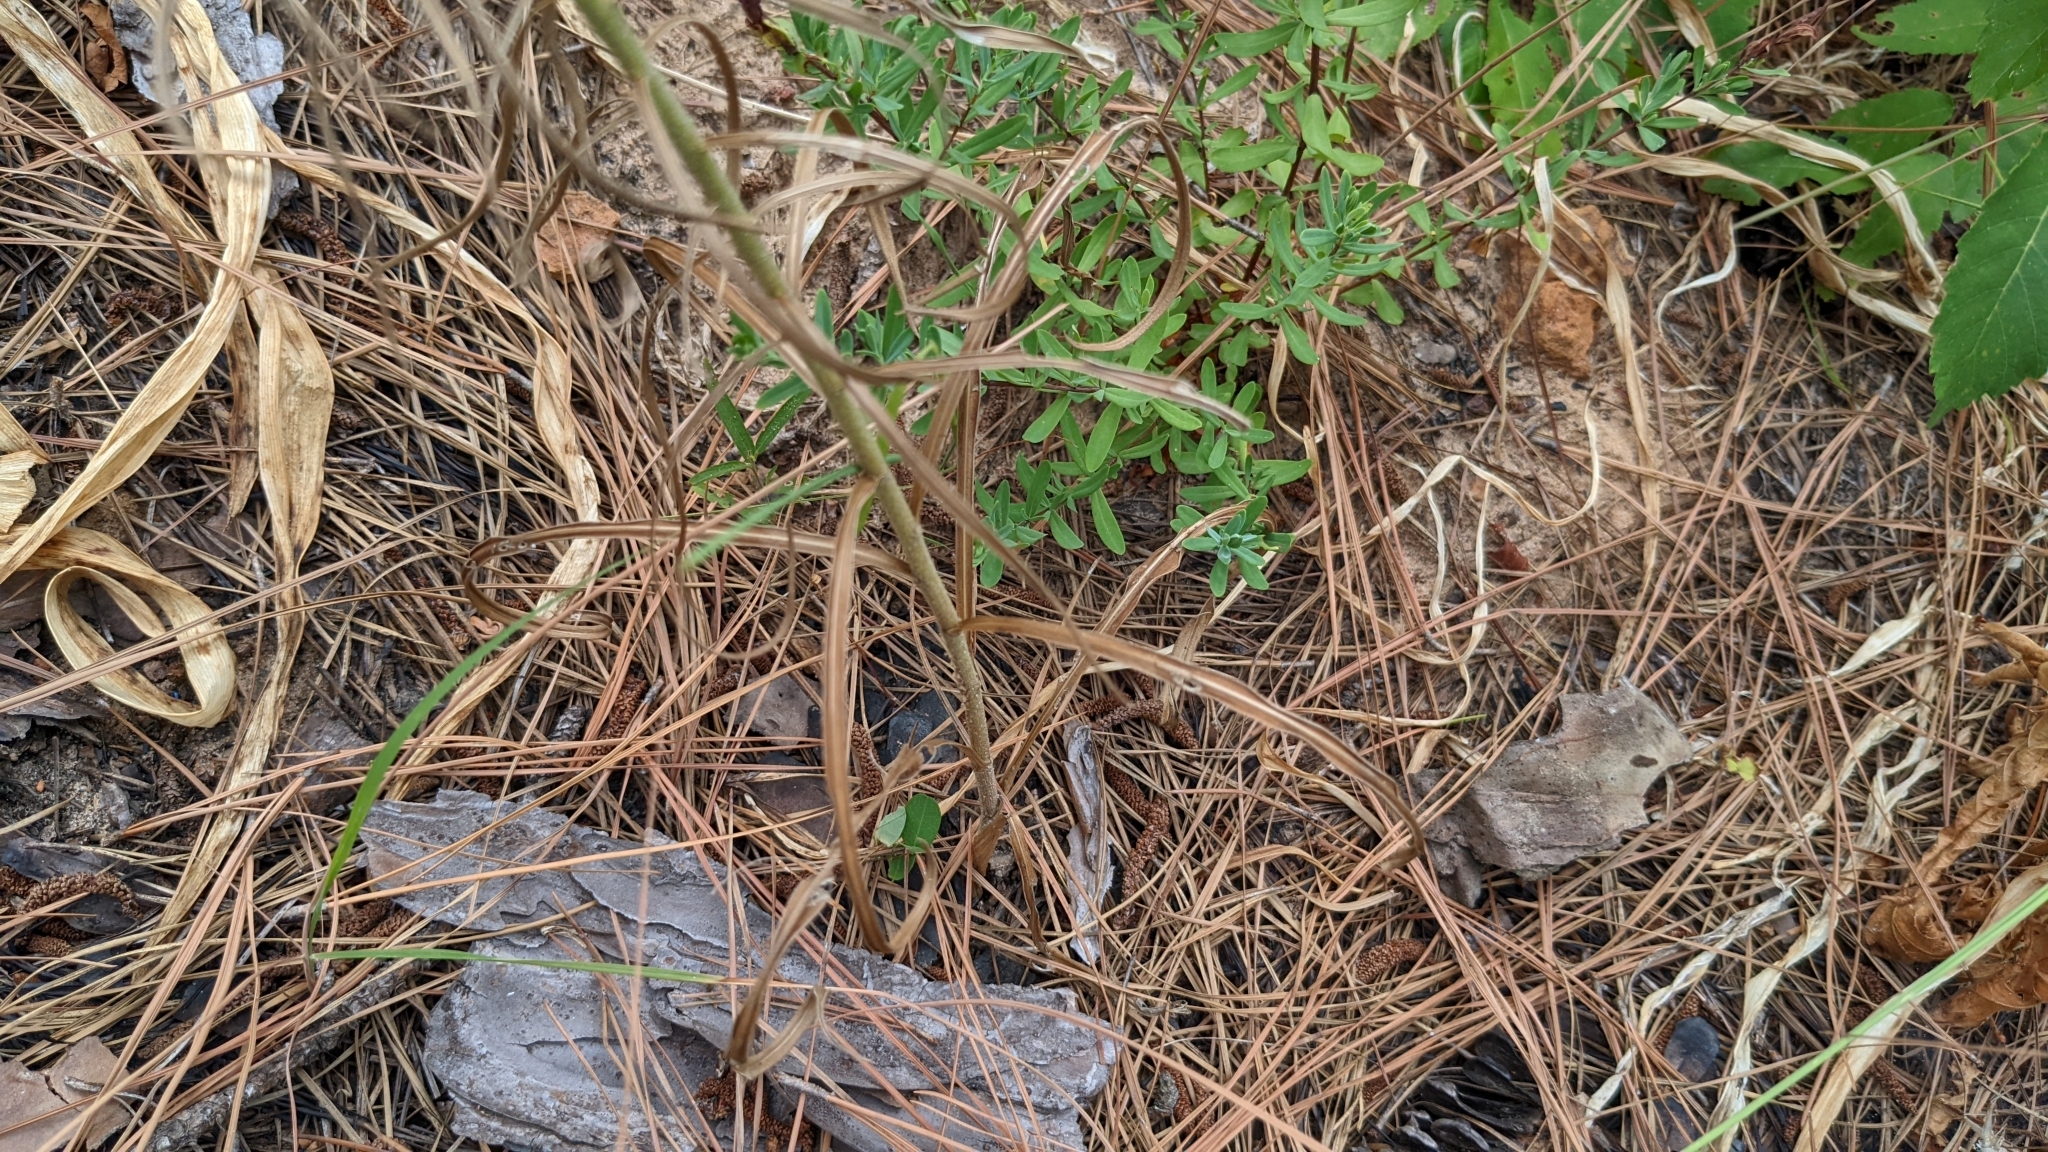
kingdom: Plantae
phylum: Tracheophyta
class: Magnoliopsida
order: Asterales
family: Asteraceae
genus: Liatris
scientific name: Liatris bridgesii
